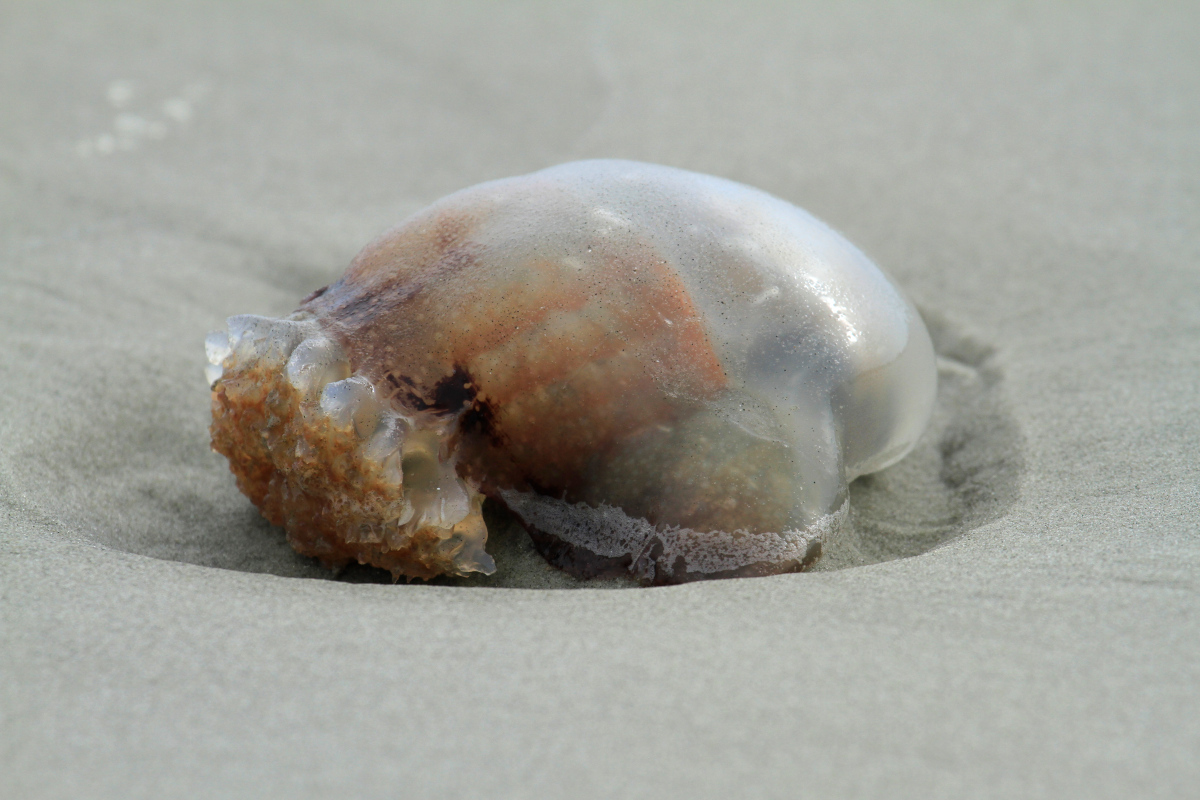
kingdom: Animalia
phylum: Cnidaria
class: Scyphozoa
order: Rhizostomeae
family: Stomolophidae
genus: Stomolophus
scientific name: Stomolophus meleagris
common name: Cabbagehead
